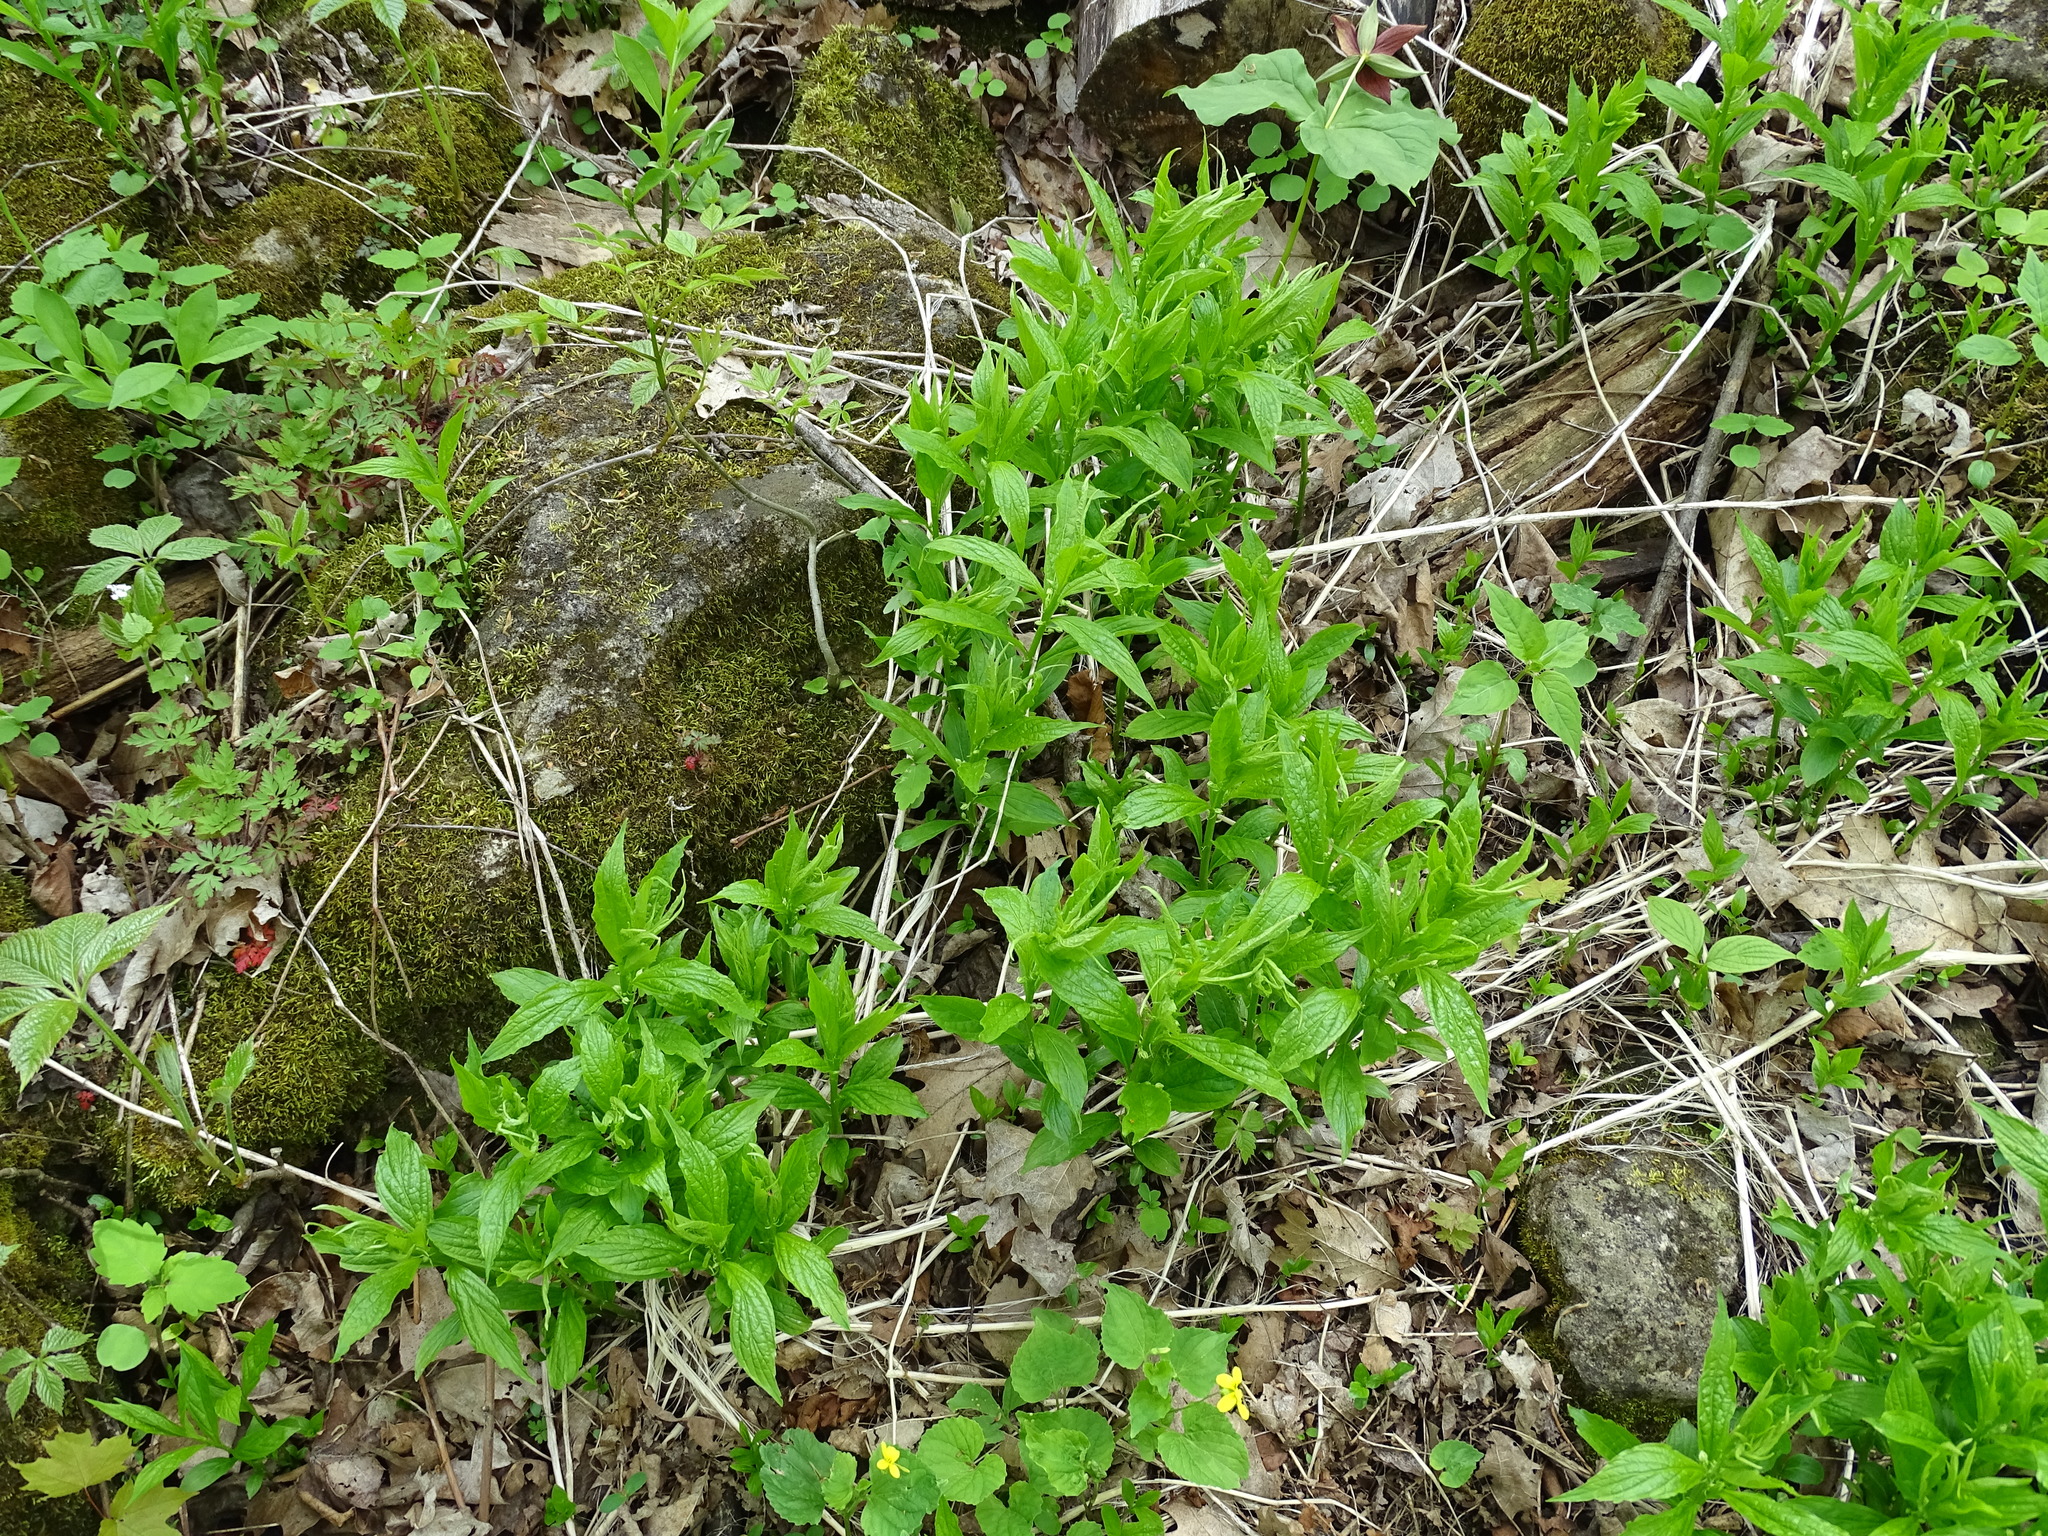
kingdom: Plantae
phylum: Tracheophyta
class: Magnoliopsida
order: Malpighiales
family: Violaceae
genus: Cubelium
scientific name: Cubelium concolor
